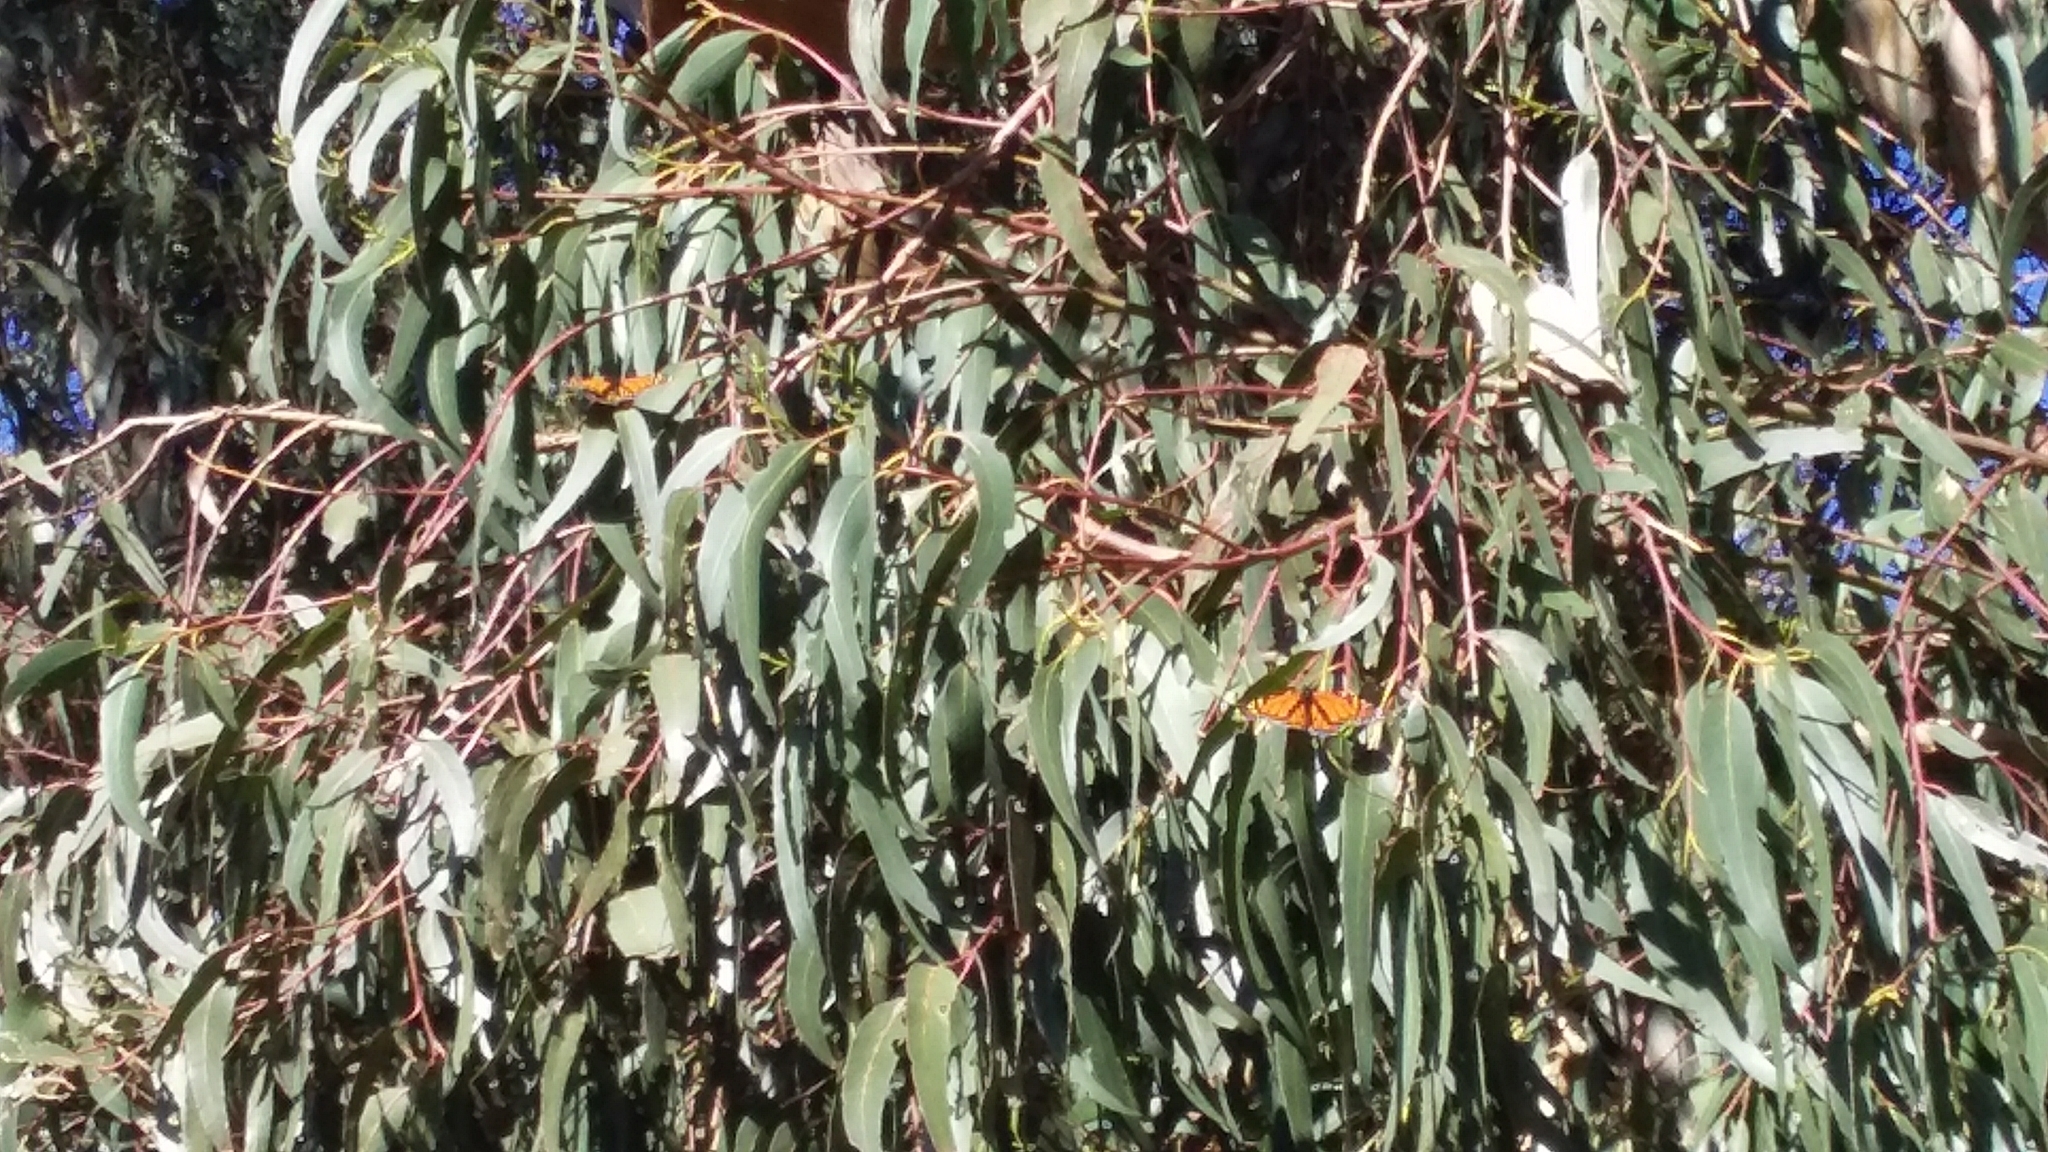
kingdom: Animalia
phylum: Arthropoda
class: Insecta
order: Lepidoptera
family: Nymphalidae
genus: Danaus
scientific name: Danaus plexippus
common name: Monarch
